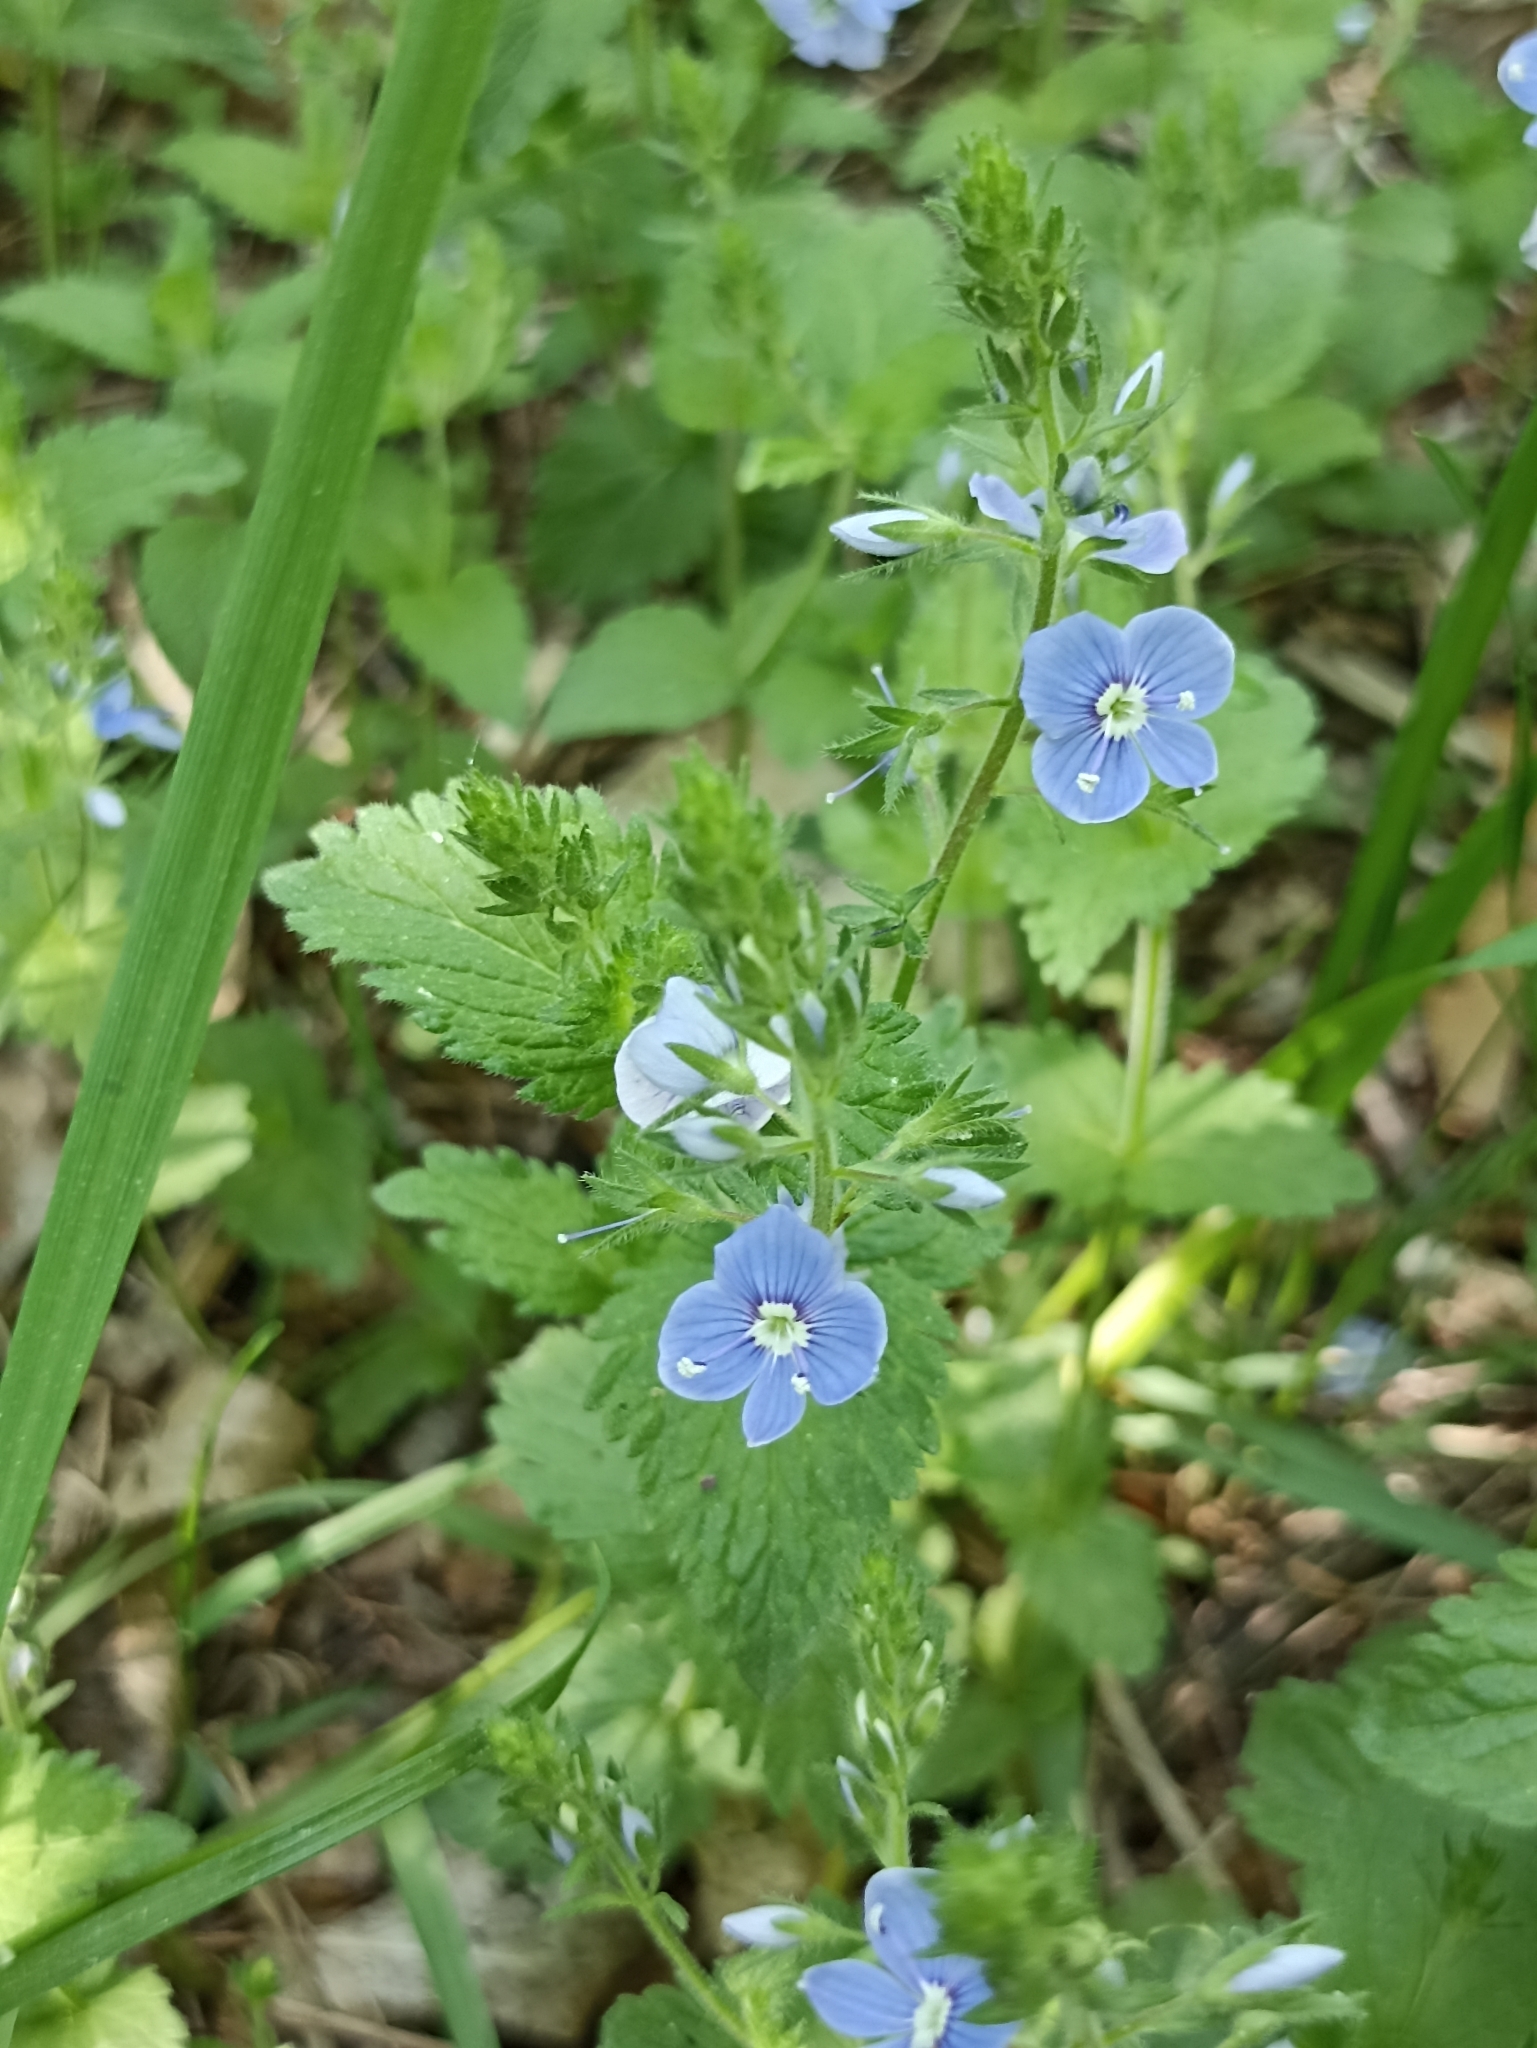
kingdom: Plantae
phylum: Tracheophyta
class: Magnoliopsida
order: Lamiales
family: Plantaginaceae
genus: Veronica
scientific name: Veronica chamaedrys
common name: Germander speedwell
